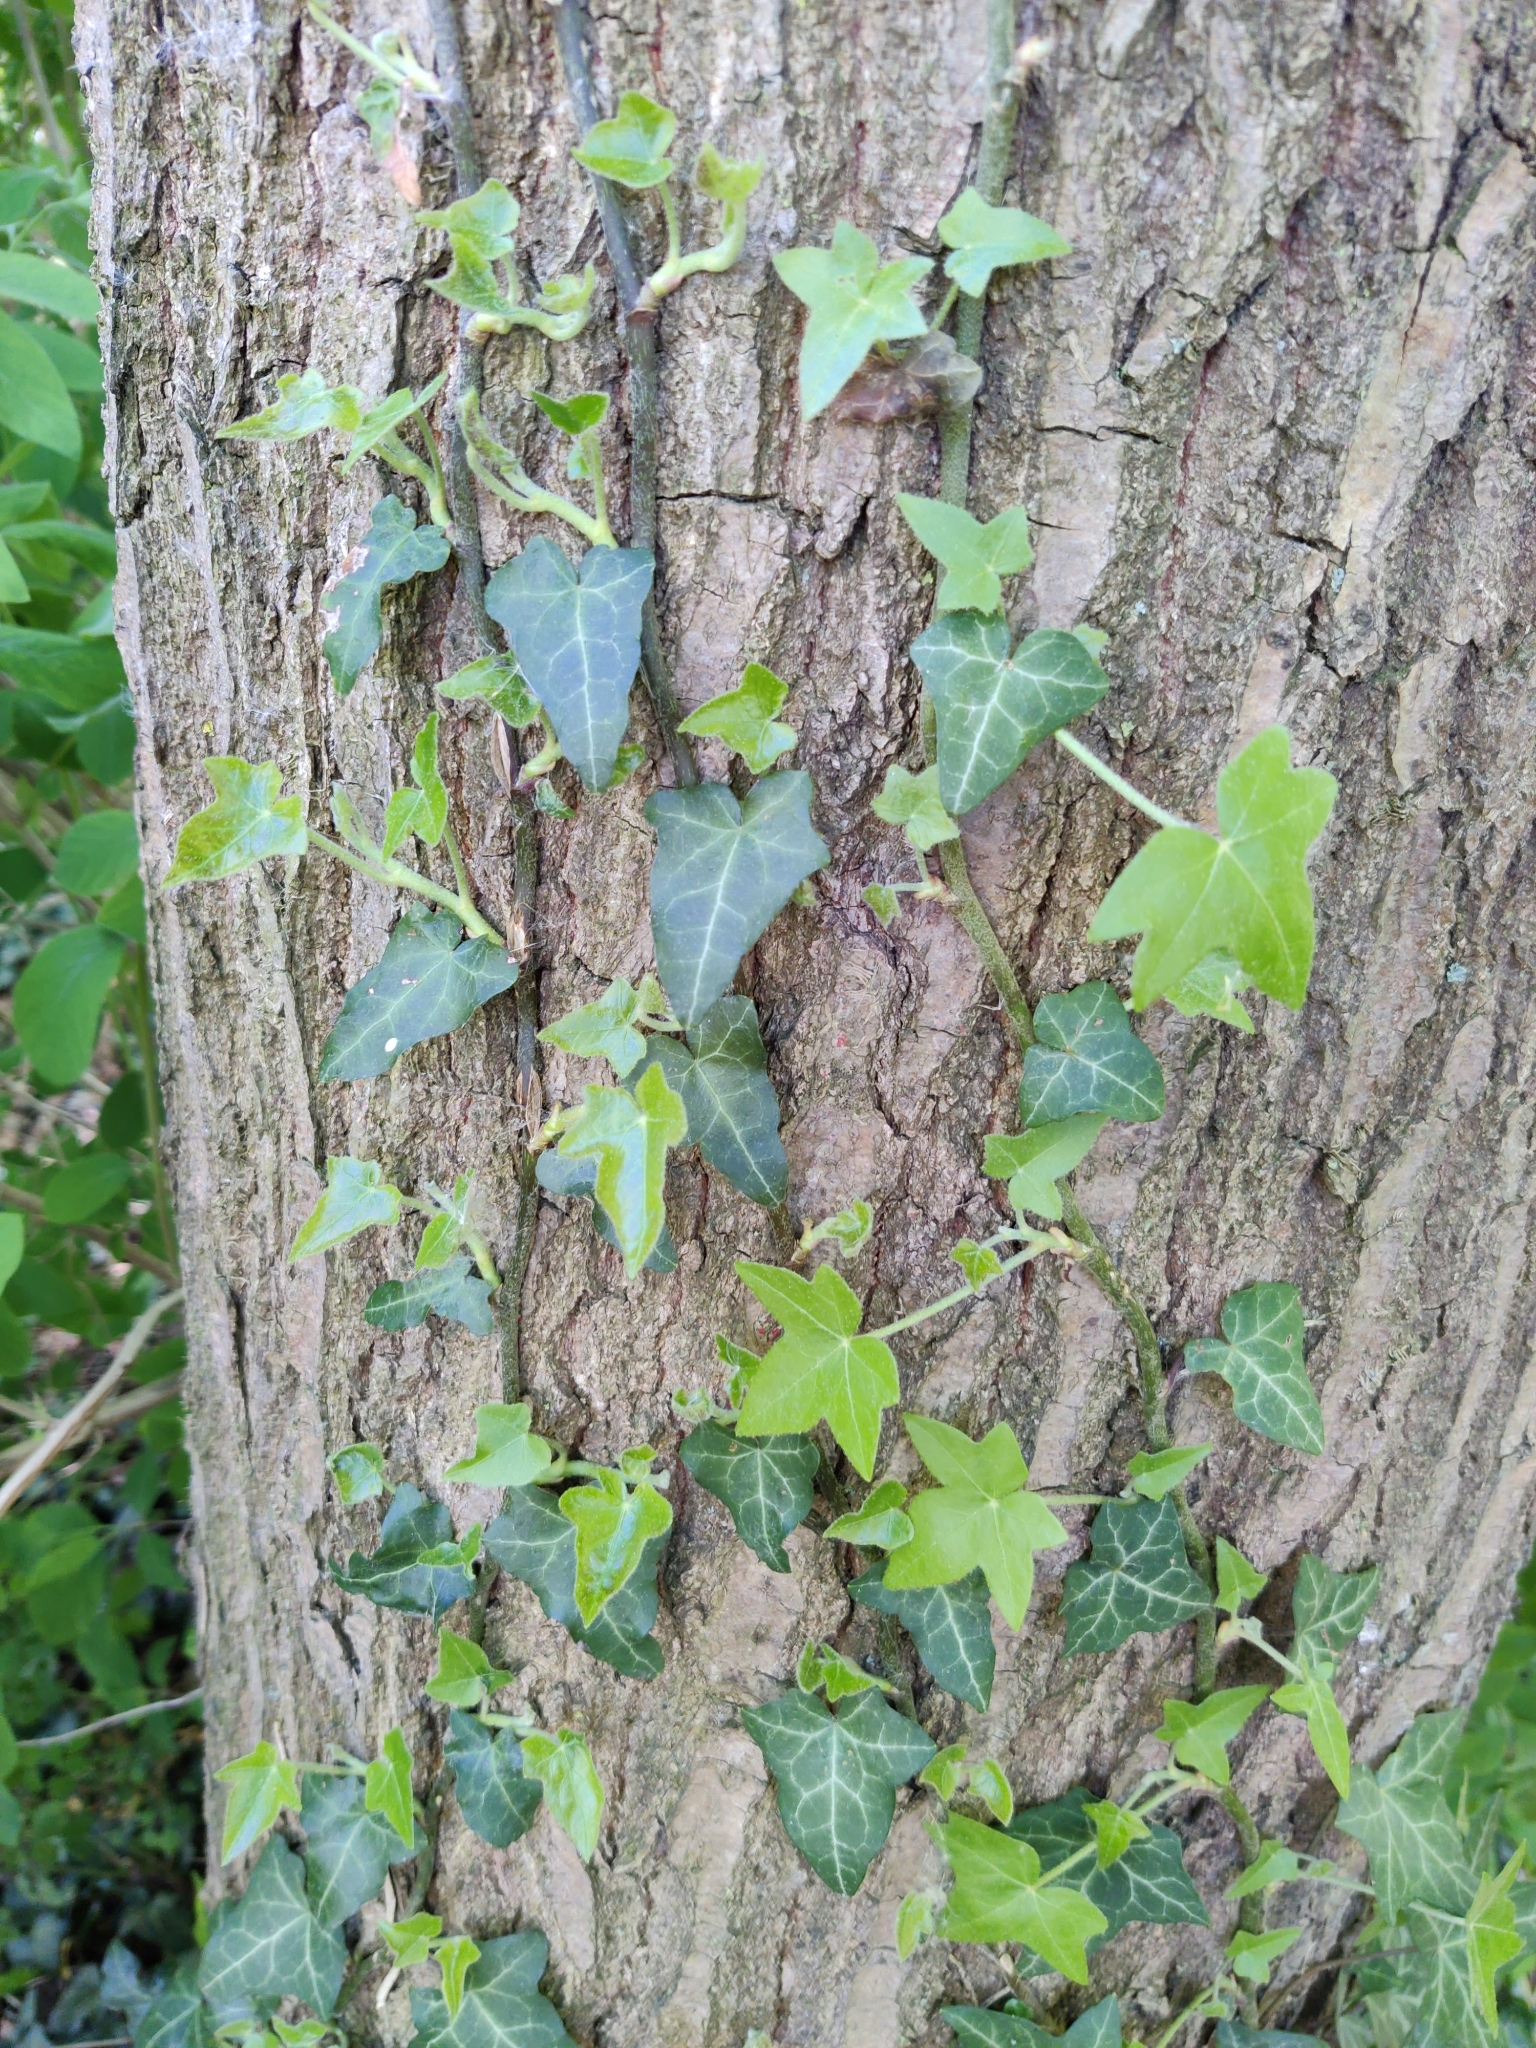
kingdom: Plantae
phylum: Tracheophyta
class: Magnoliopsida
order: Apiales
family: Araliaceae
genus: Hedera
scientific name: Hedera helix
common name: Ivy
